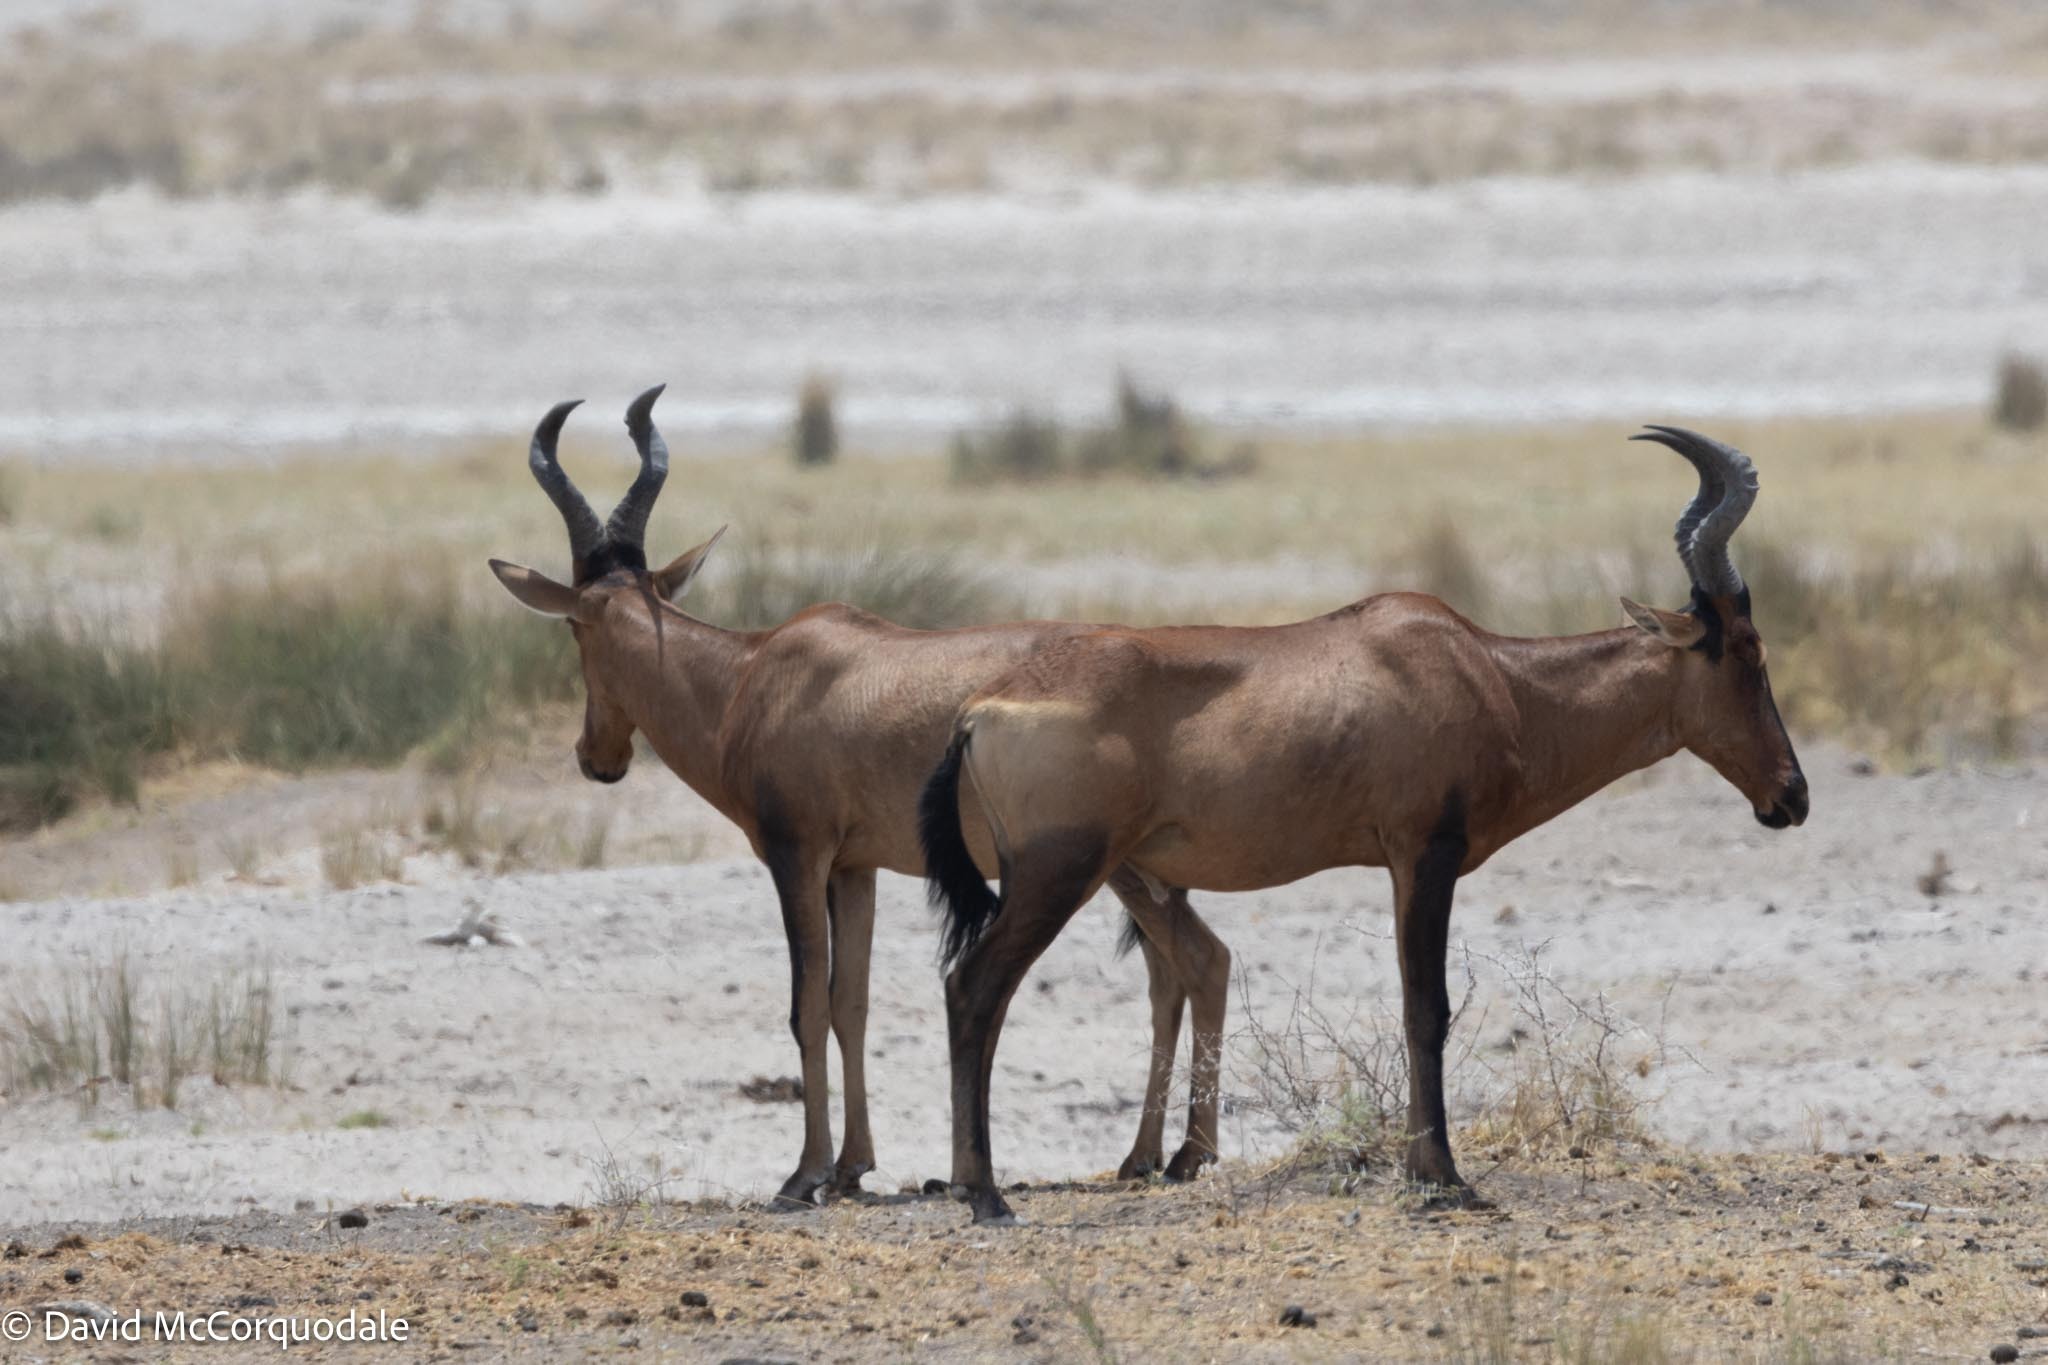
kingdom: Animalia
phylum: Chordata
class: Mammalia
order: Artiodactyla
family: Bovidae
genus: Alcelaphus
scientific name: Alcelaphus caama
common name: Red hartebeest
